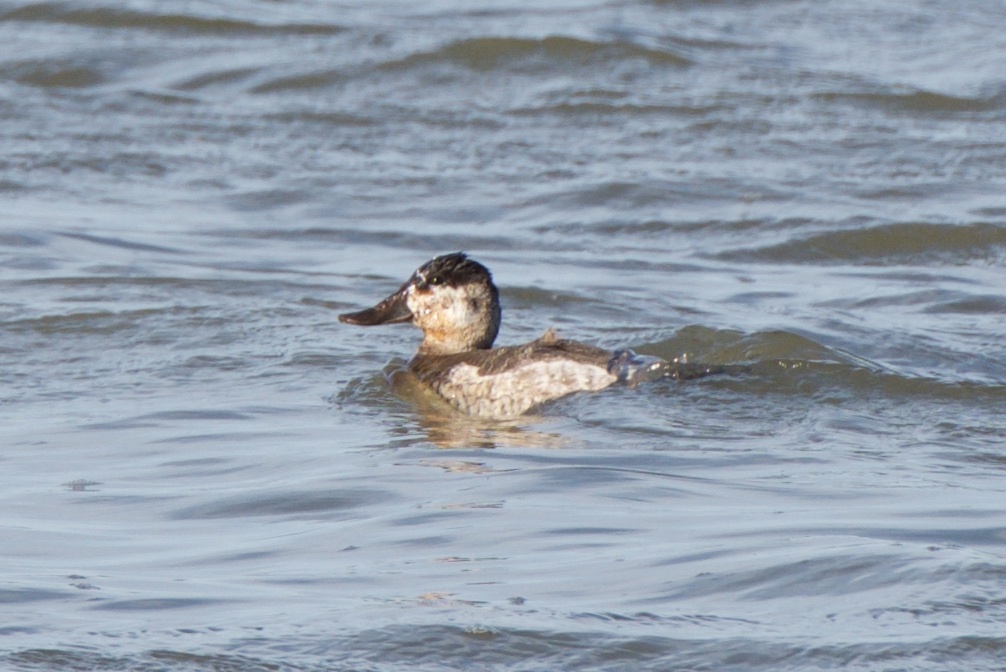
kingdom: Animalia
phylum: Chordata
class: Aves
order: Anseriformes
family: Anatidae
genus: Oxyura
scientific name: Oxyura jamaicensis
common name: Ruddy duck
